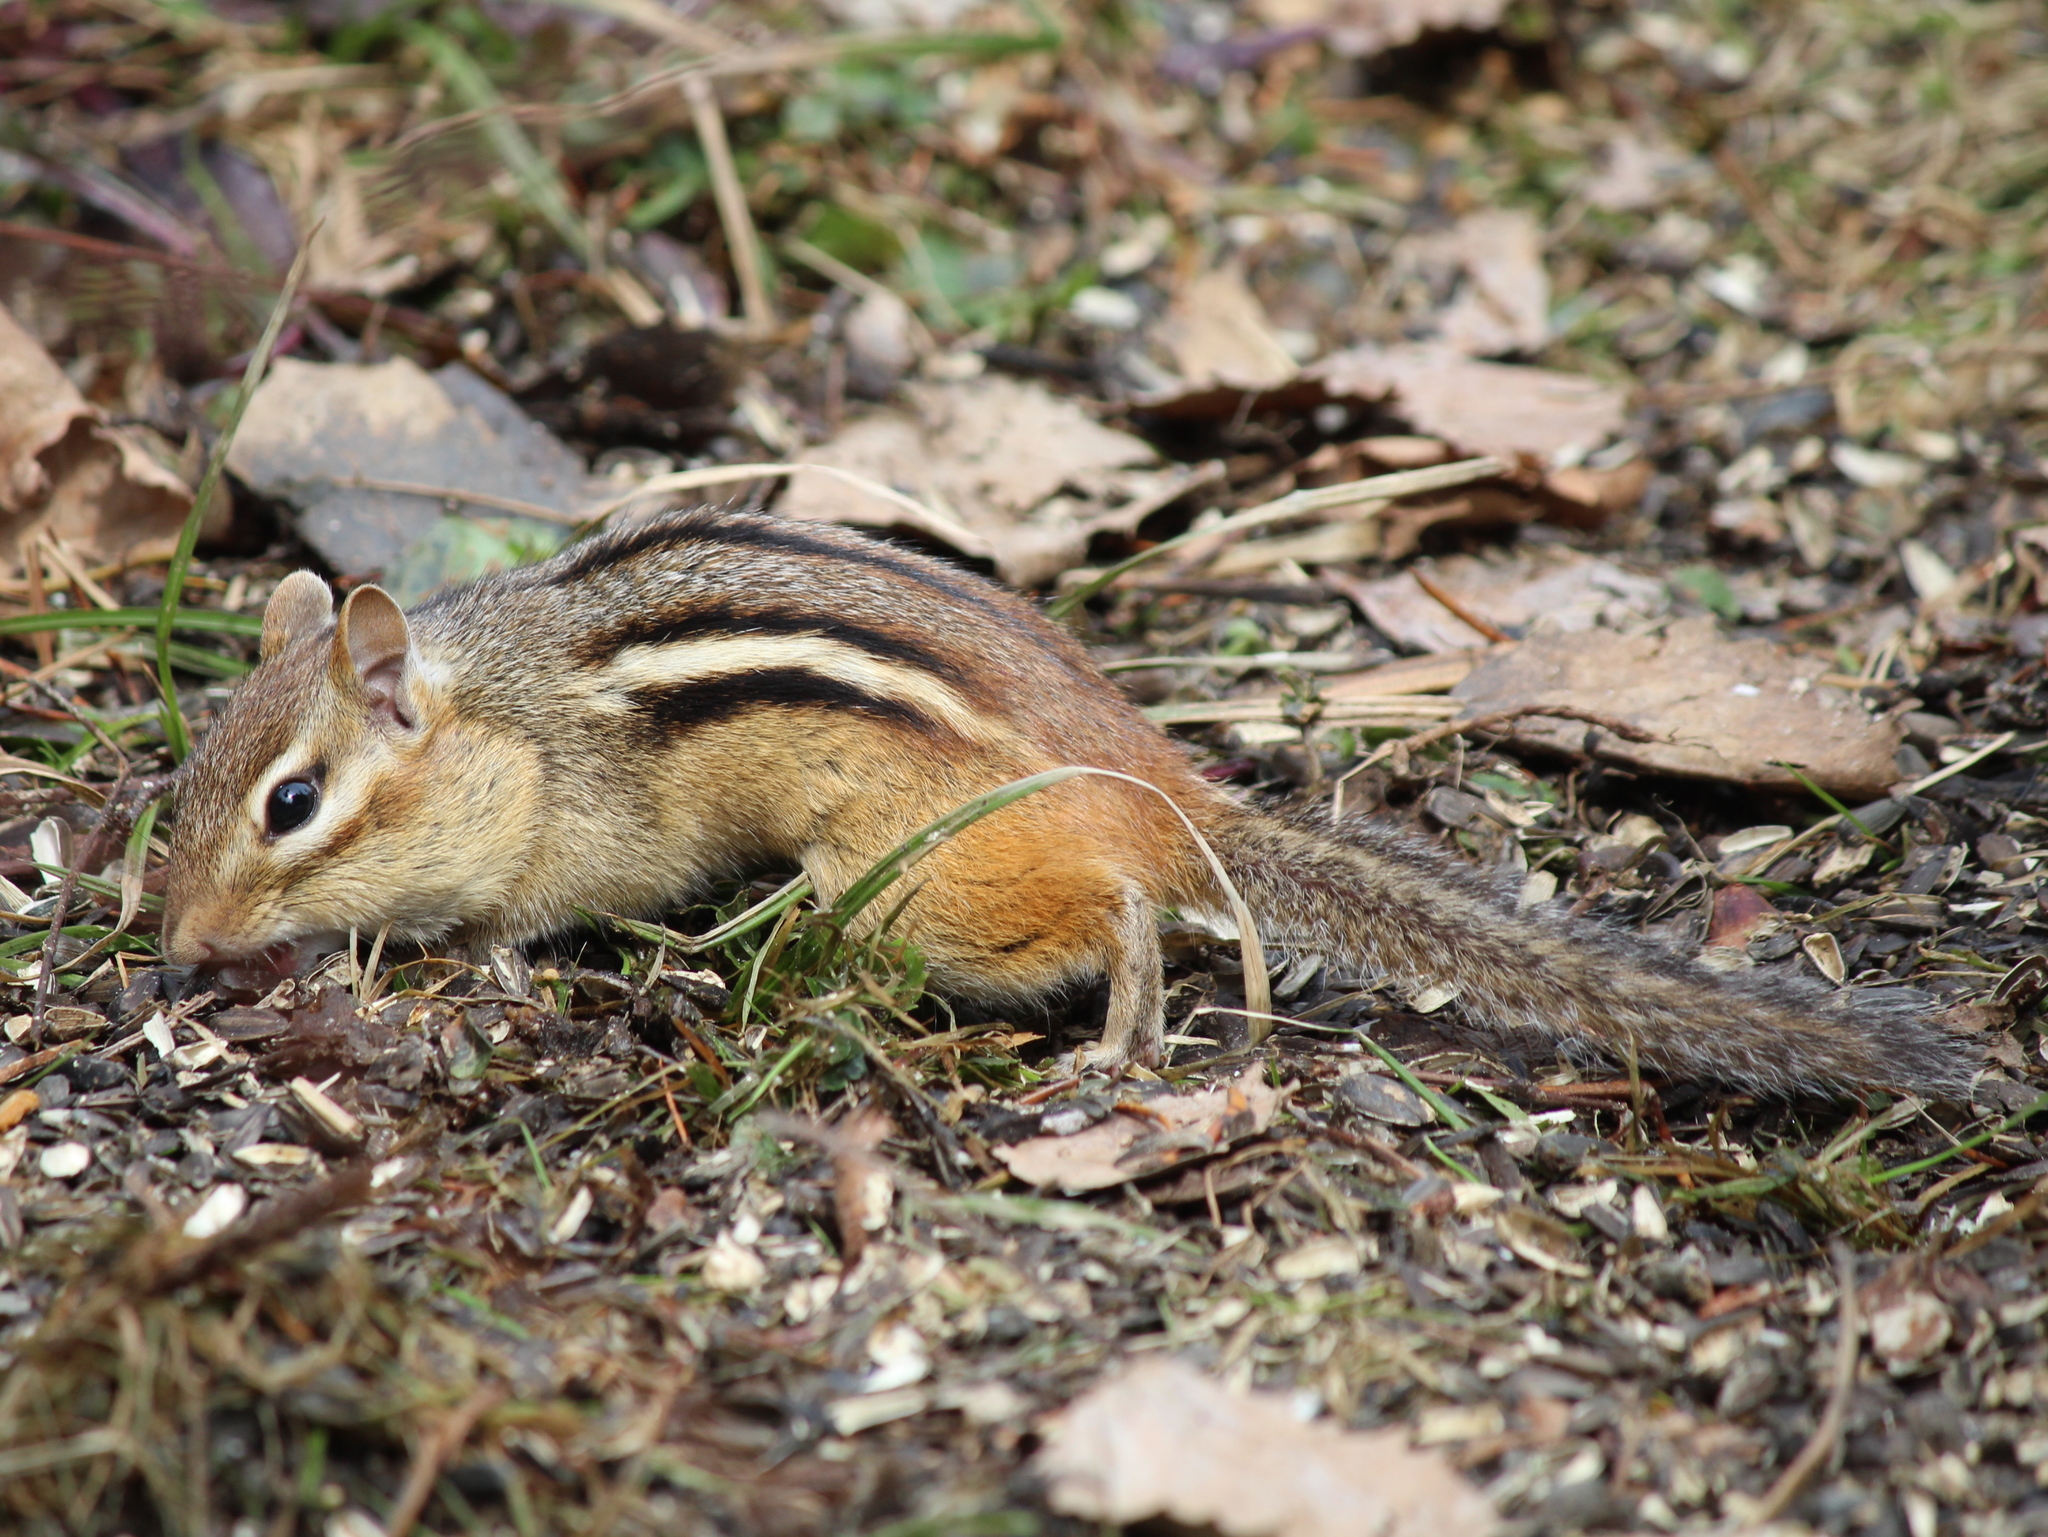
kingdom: Animalia
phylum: Chordata
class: Mammalia
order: Rodentia
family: Sciuridae
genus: Tamias
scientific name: Tamias striatus
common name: Eastern chipmunk
